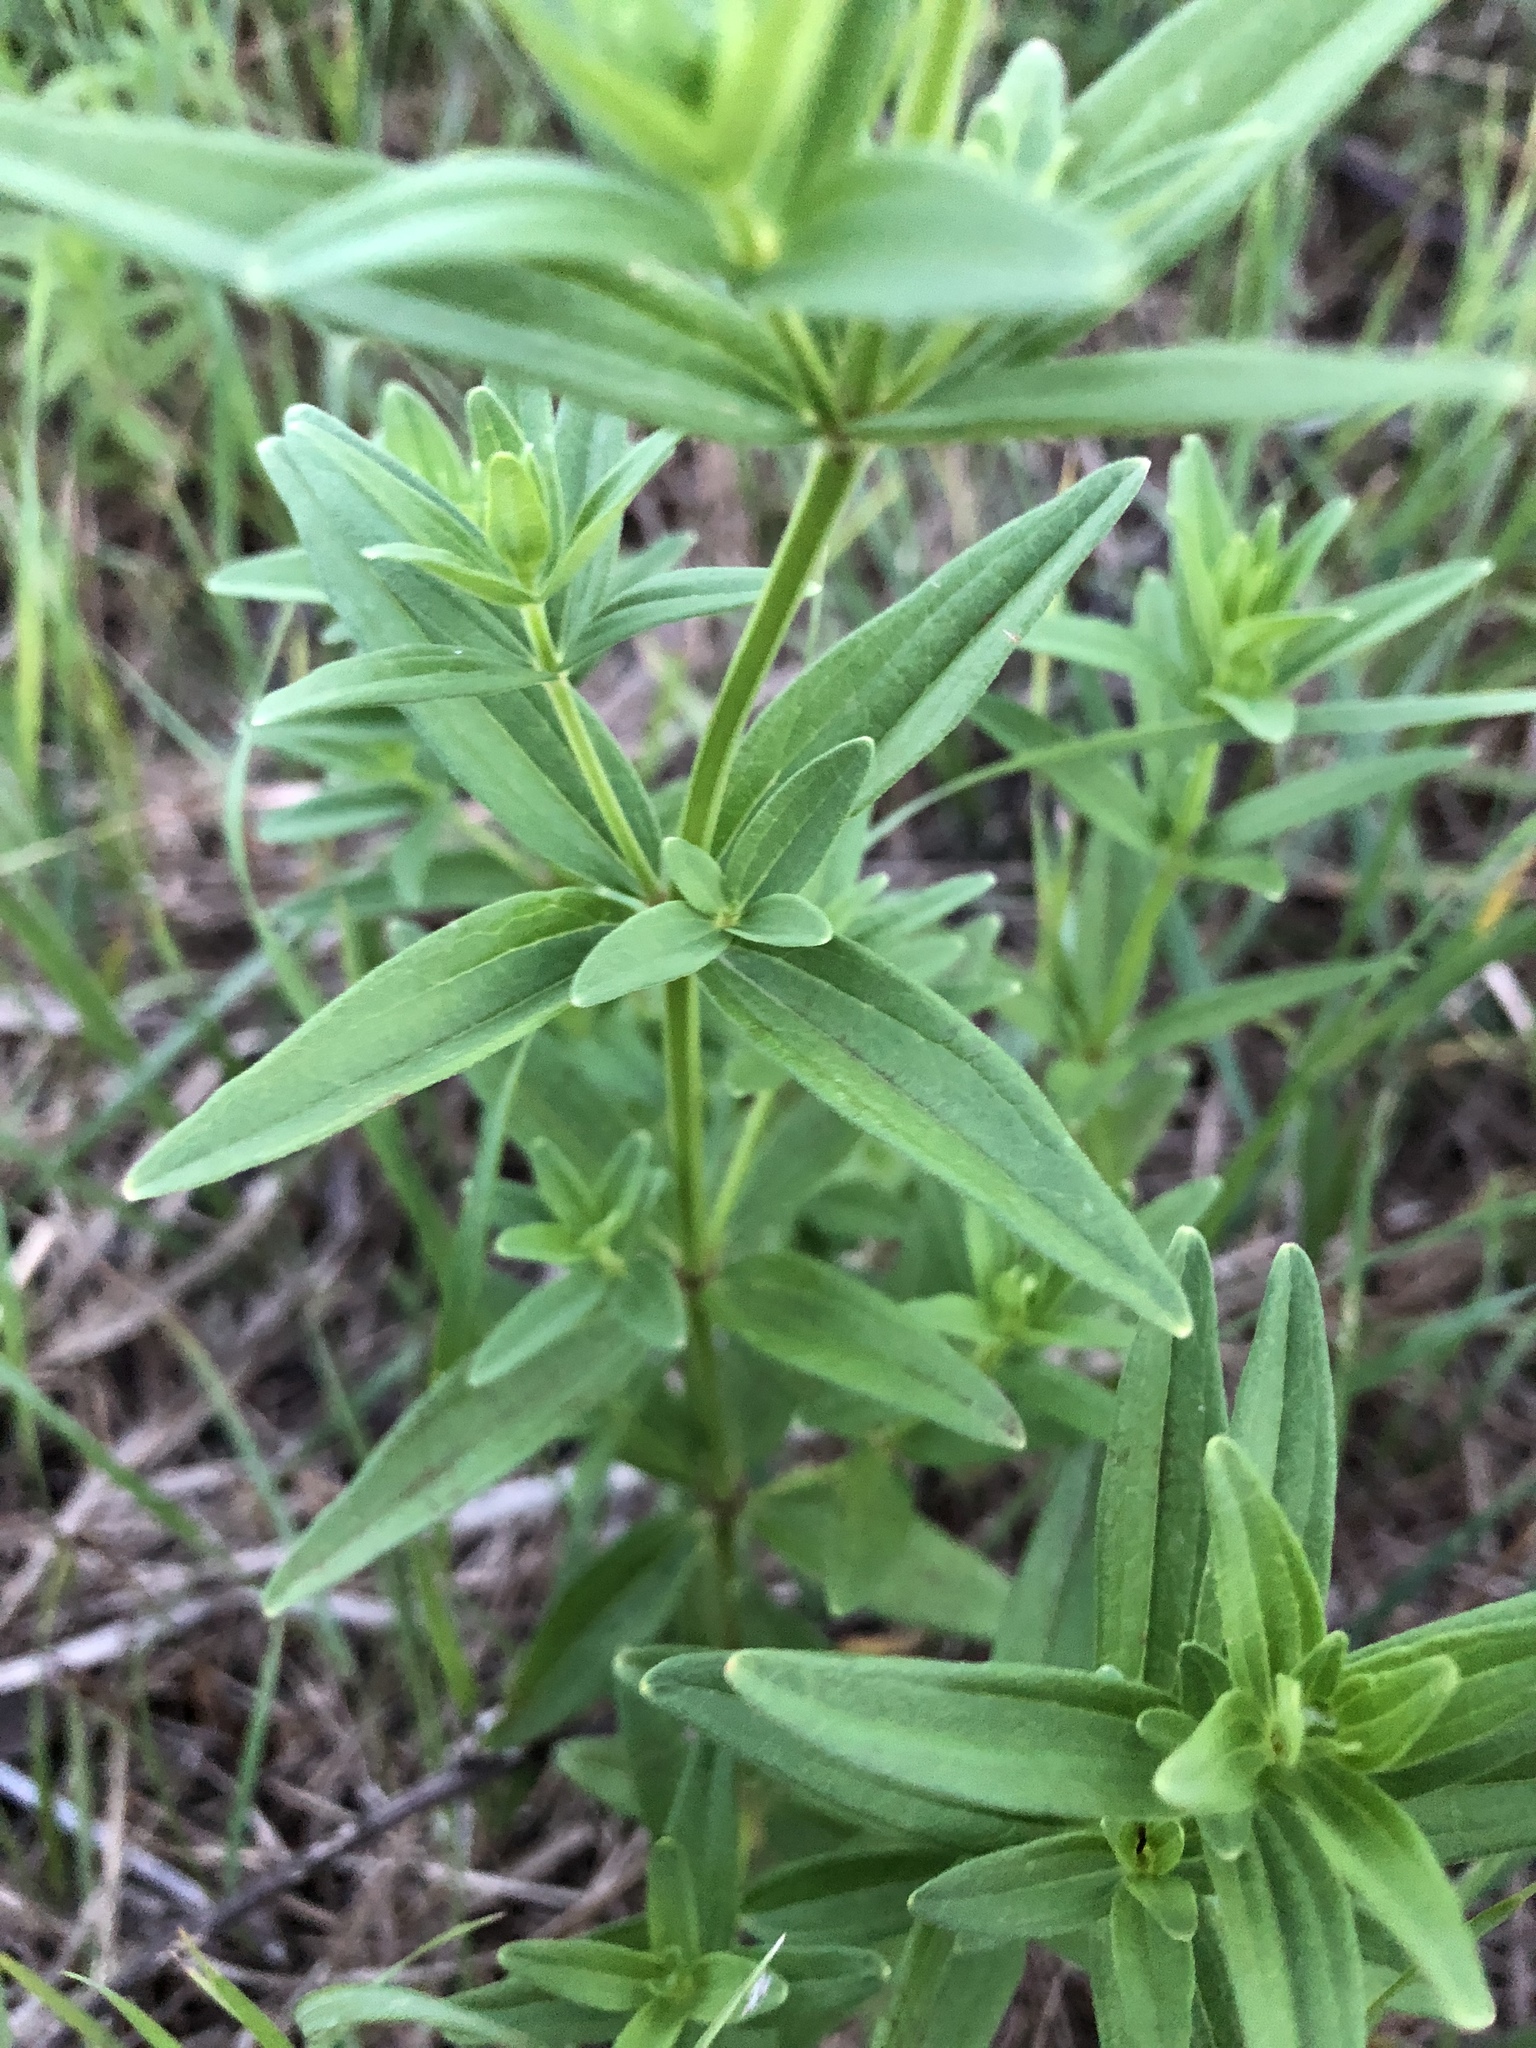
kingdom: Plantae
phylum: Tracheophyta
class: Magnoliopsida
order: Gentianales
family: Rubiaceae
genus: Galium
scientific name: Galium boreale
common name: Northern bedstraw
